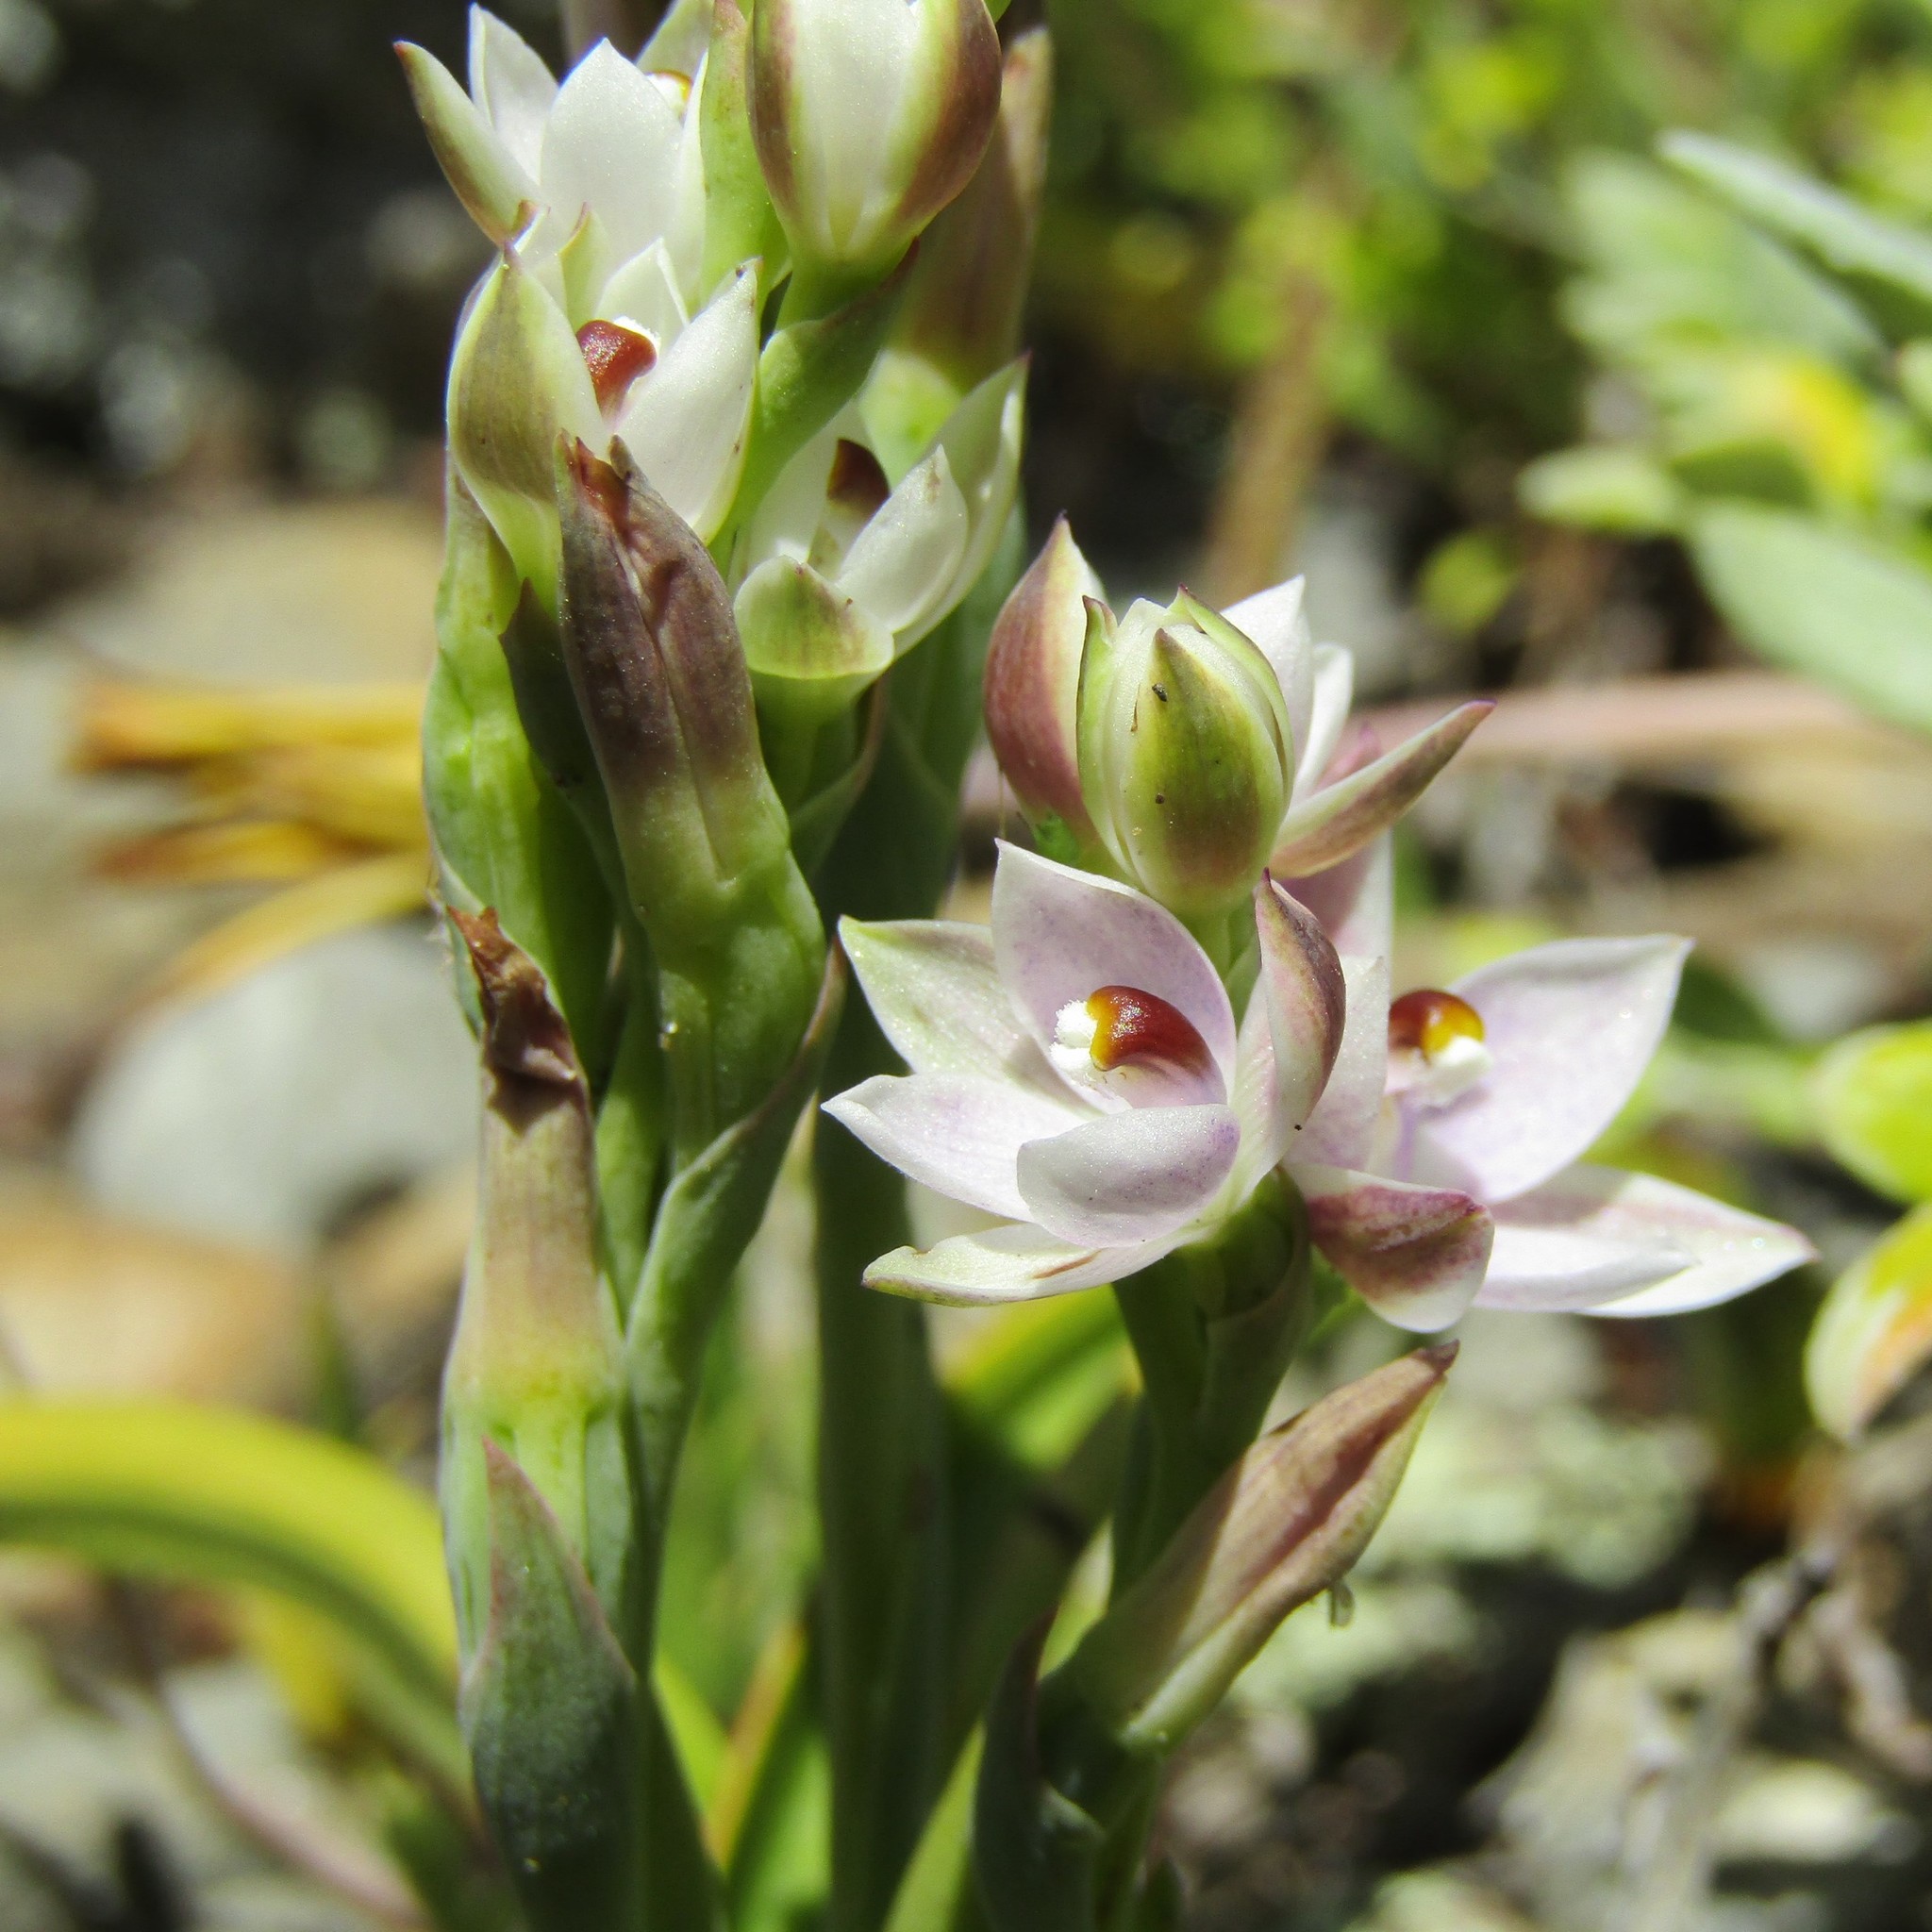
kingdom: Plantae
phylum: Tracheophyta
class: Liliopsida
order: Asparagales
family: Orchidaceae
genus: Thelymitra
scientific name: Thelymitra longifolia
